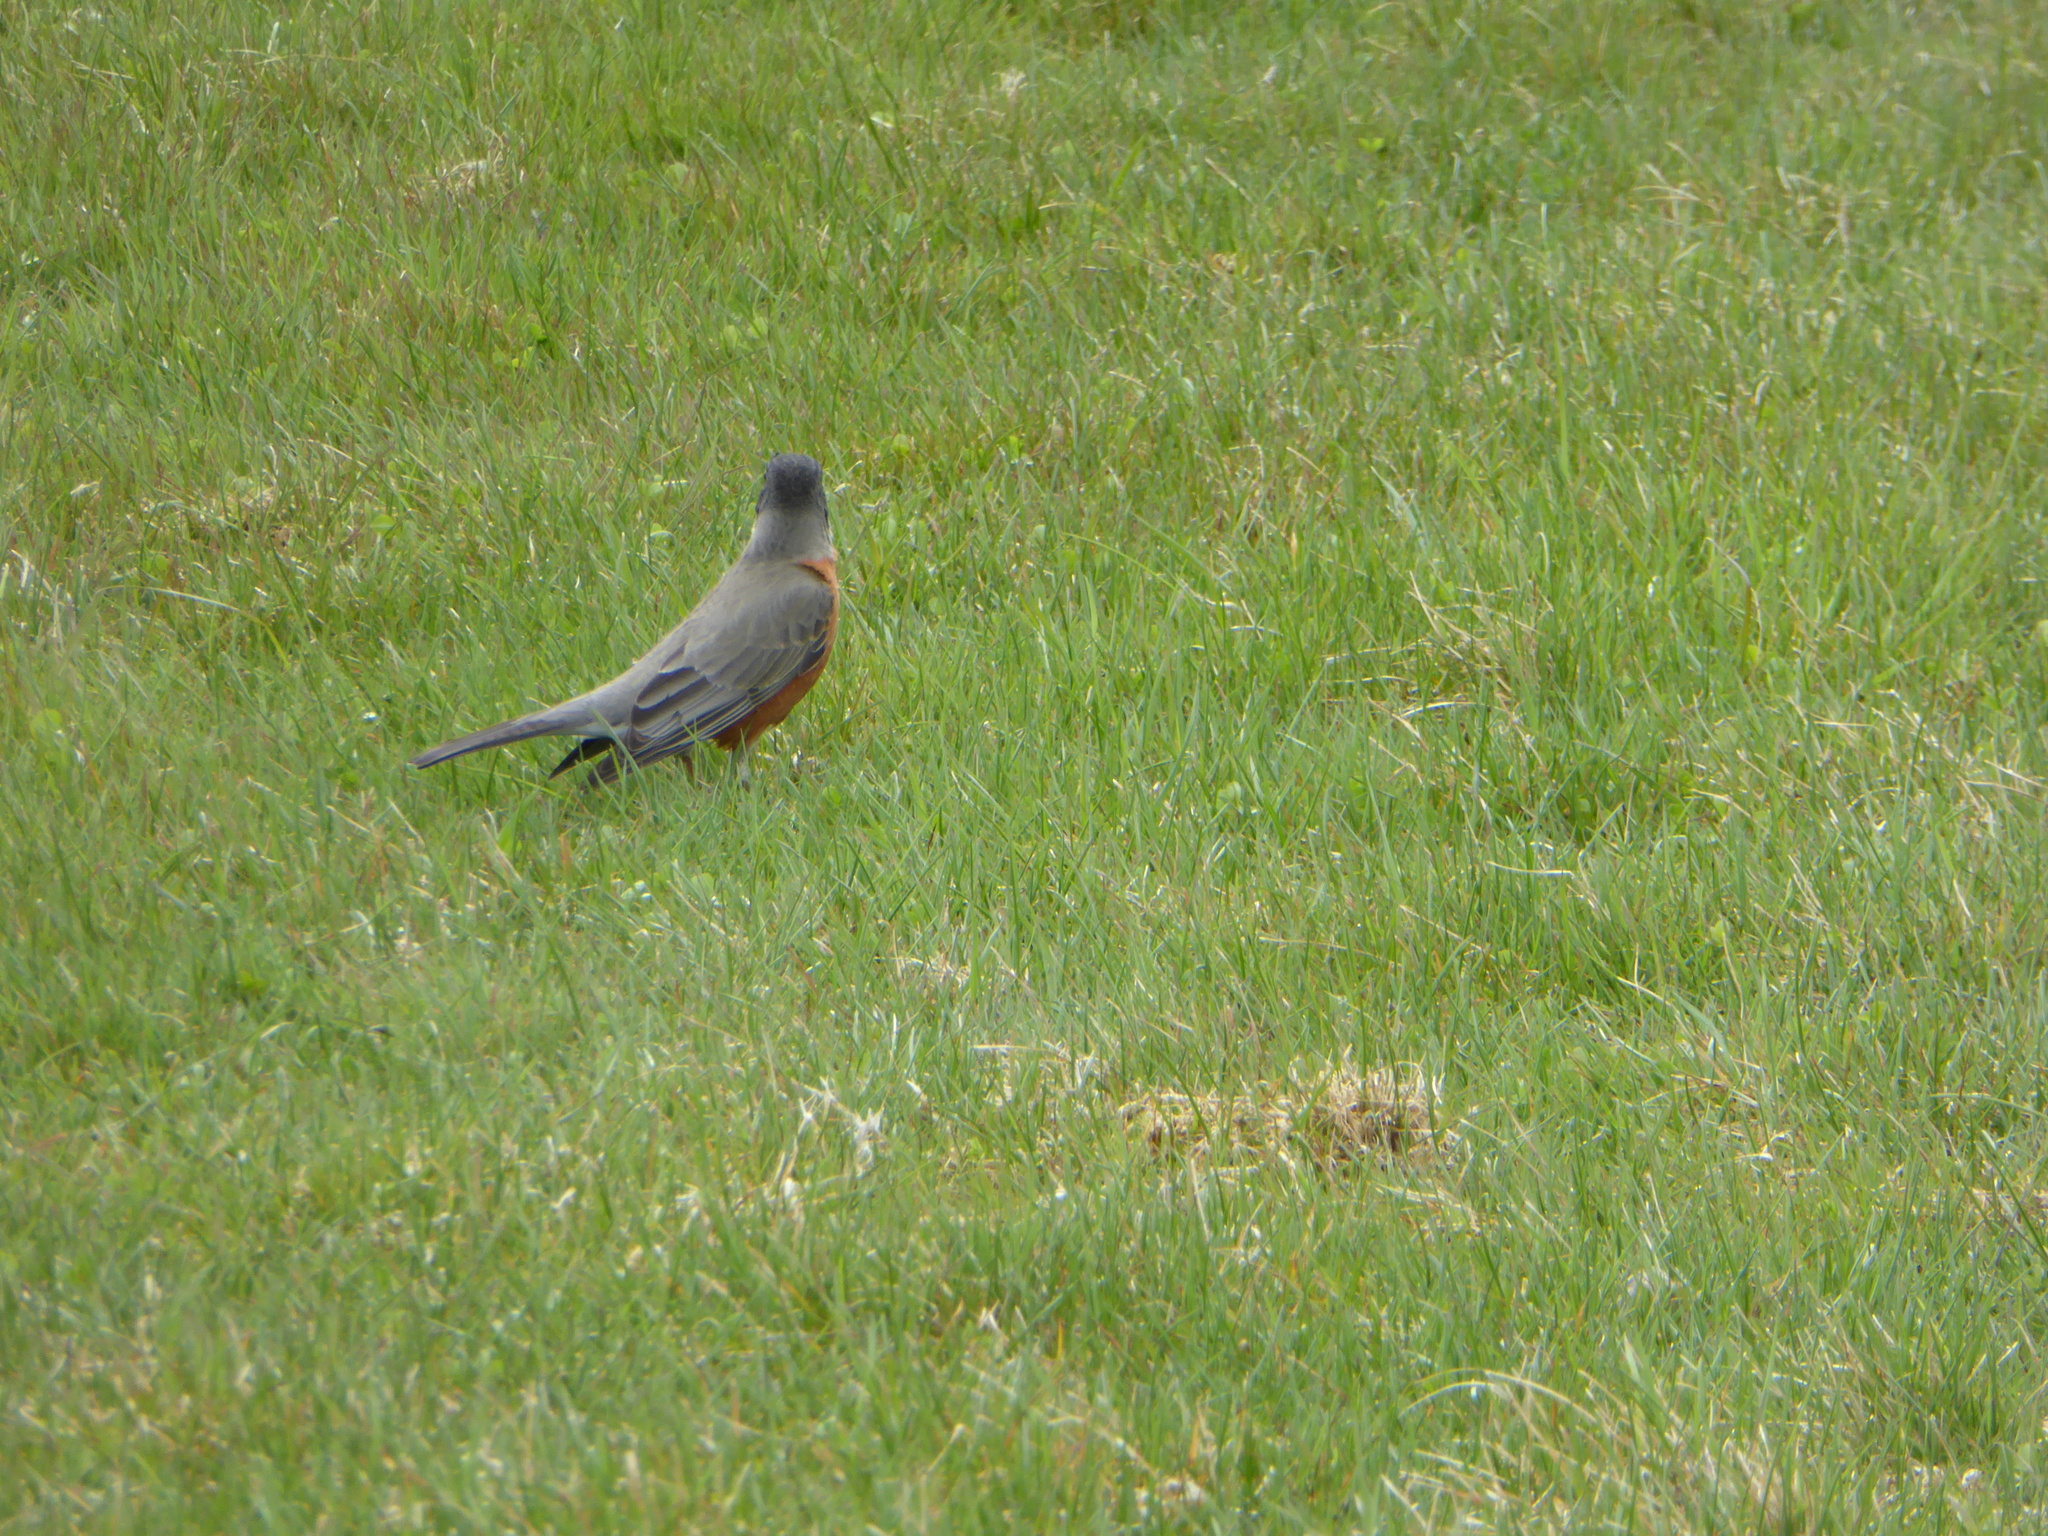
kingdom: Animalia
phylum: Chordata
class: Aves
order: Passeriformes
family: Turdidae
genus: Turdus
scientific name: Turdus migratorius
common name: American robin
